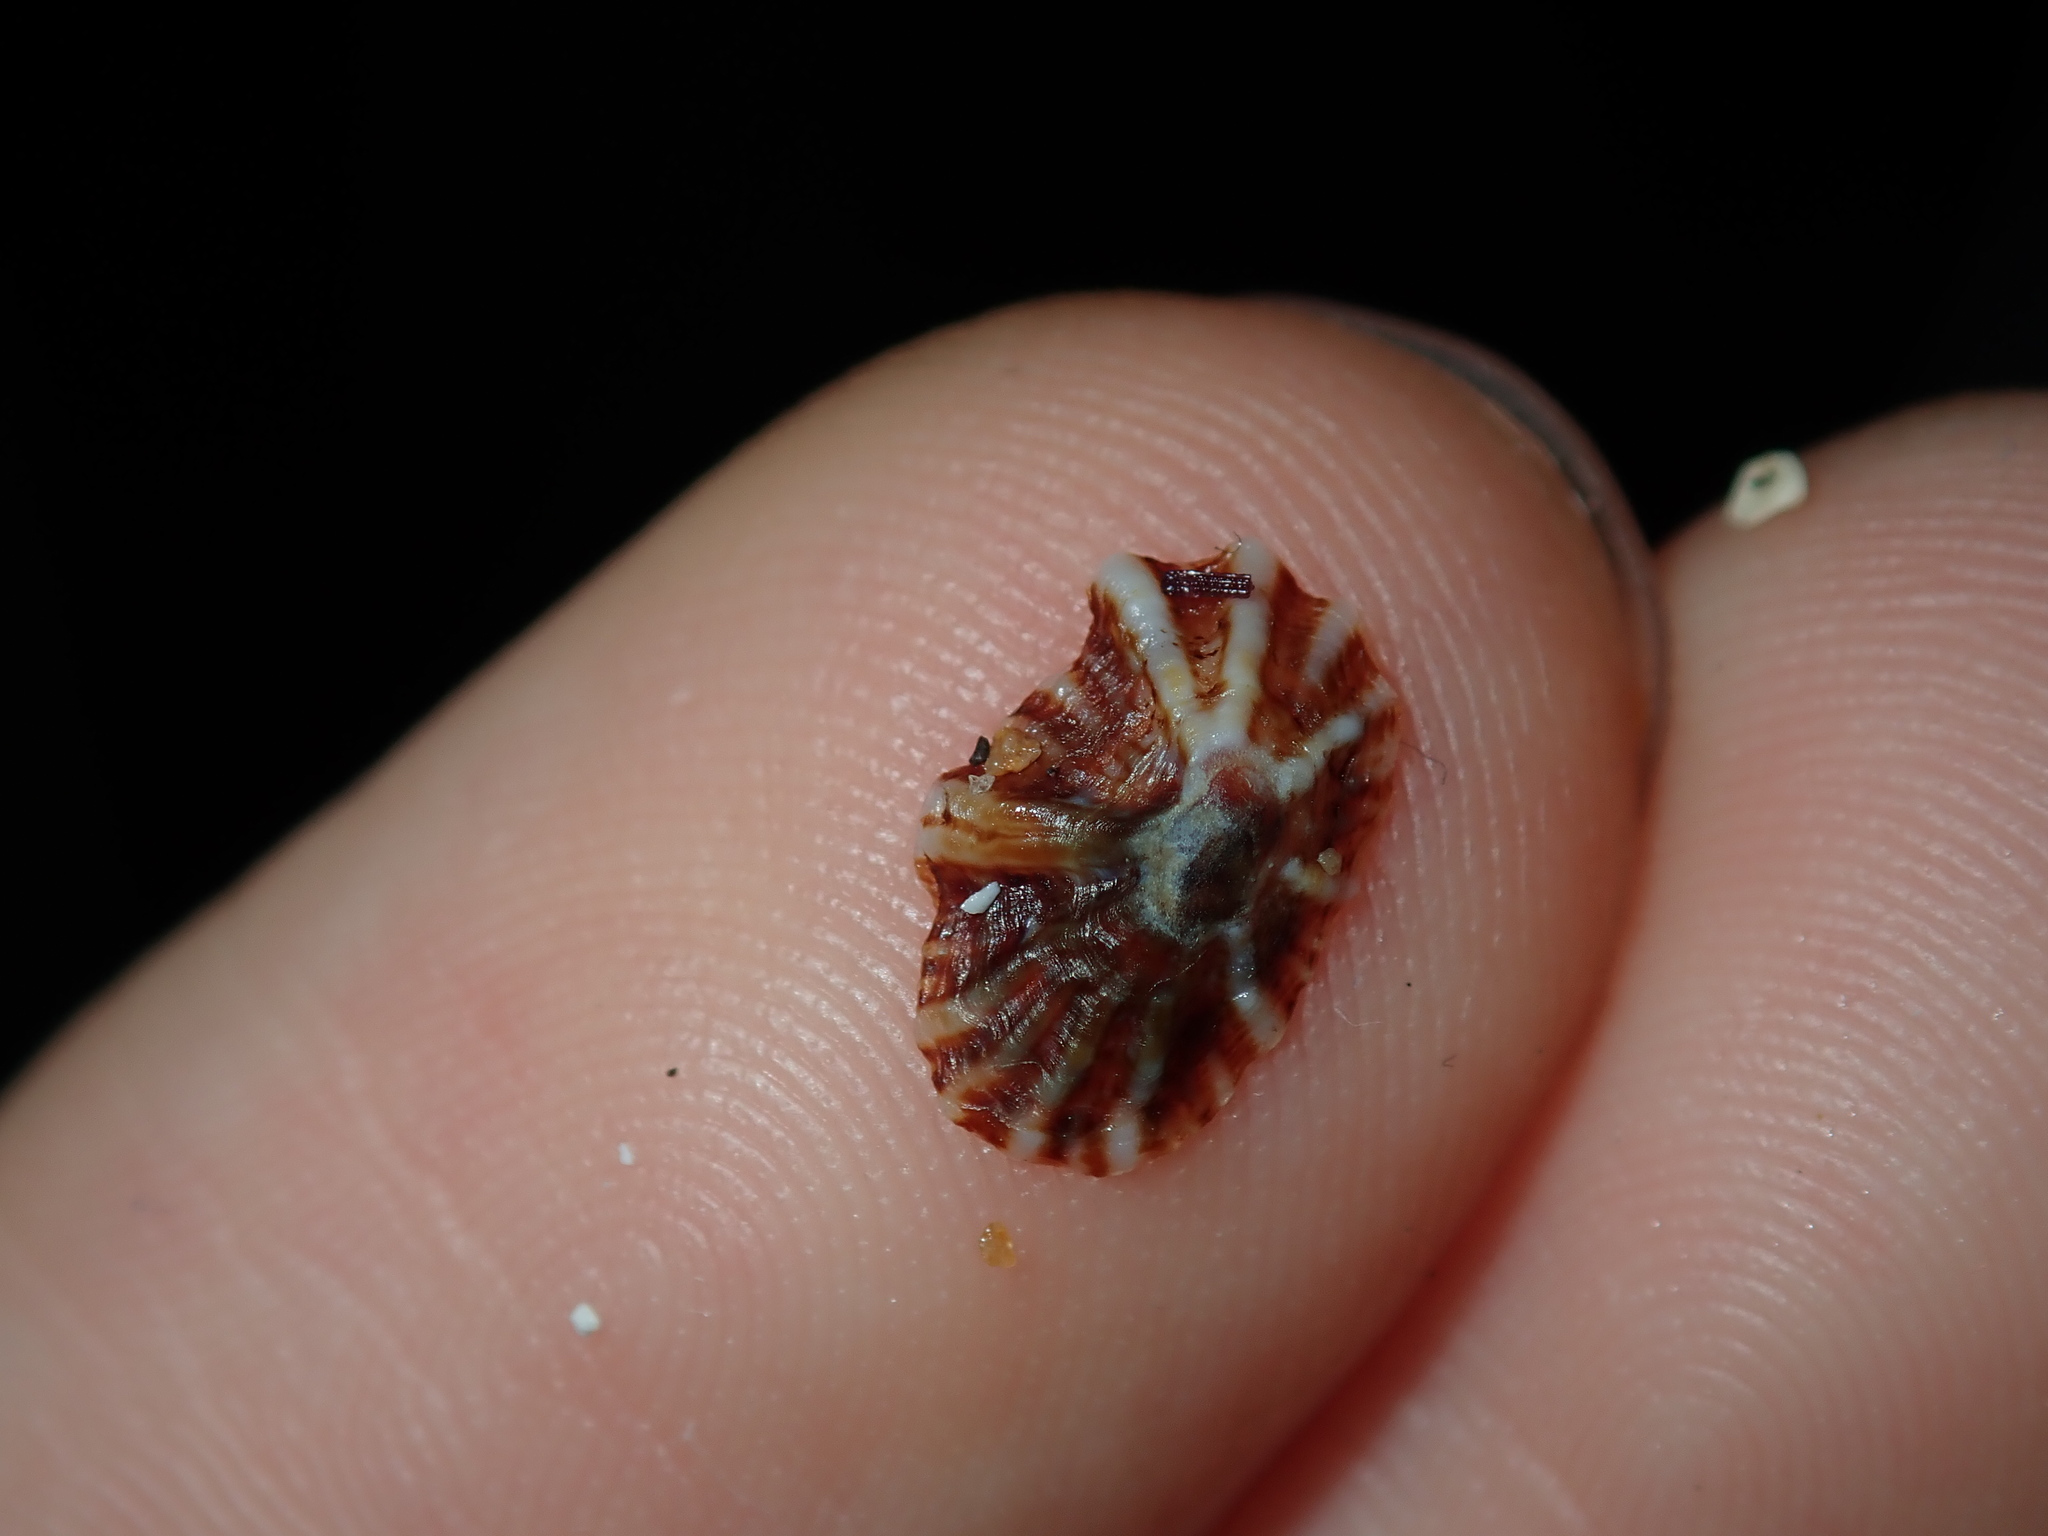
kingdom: Animalia
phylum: Mollusca
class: Gastropoda
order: Siphonariida
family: Siphonariidae
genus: Siphonaria
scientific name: Siphonaria denticulata
